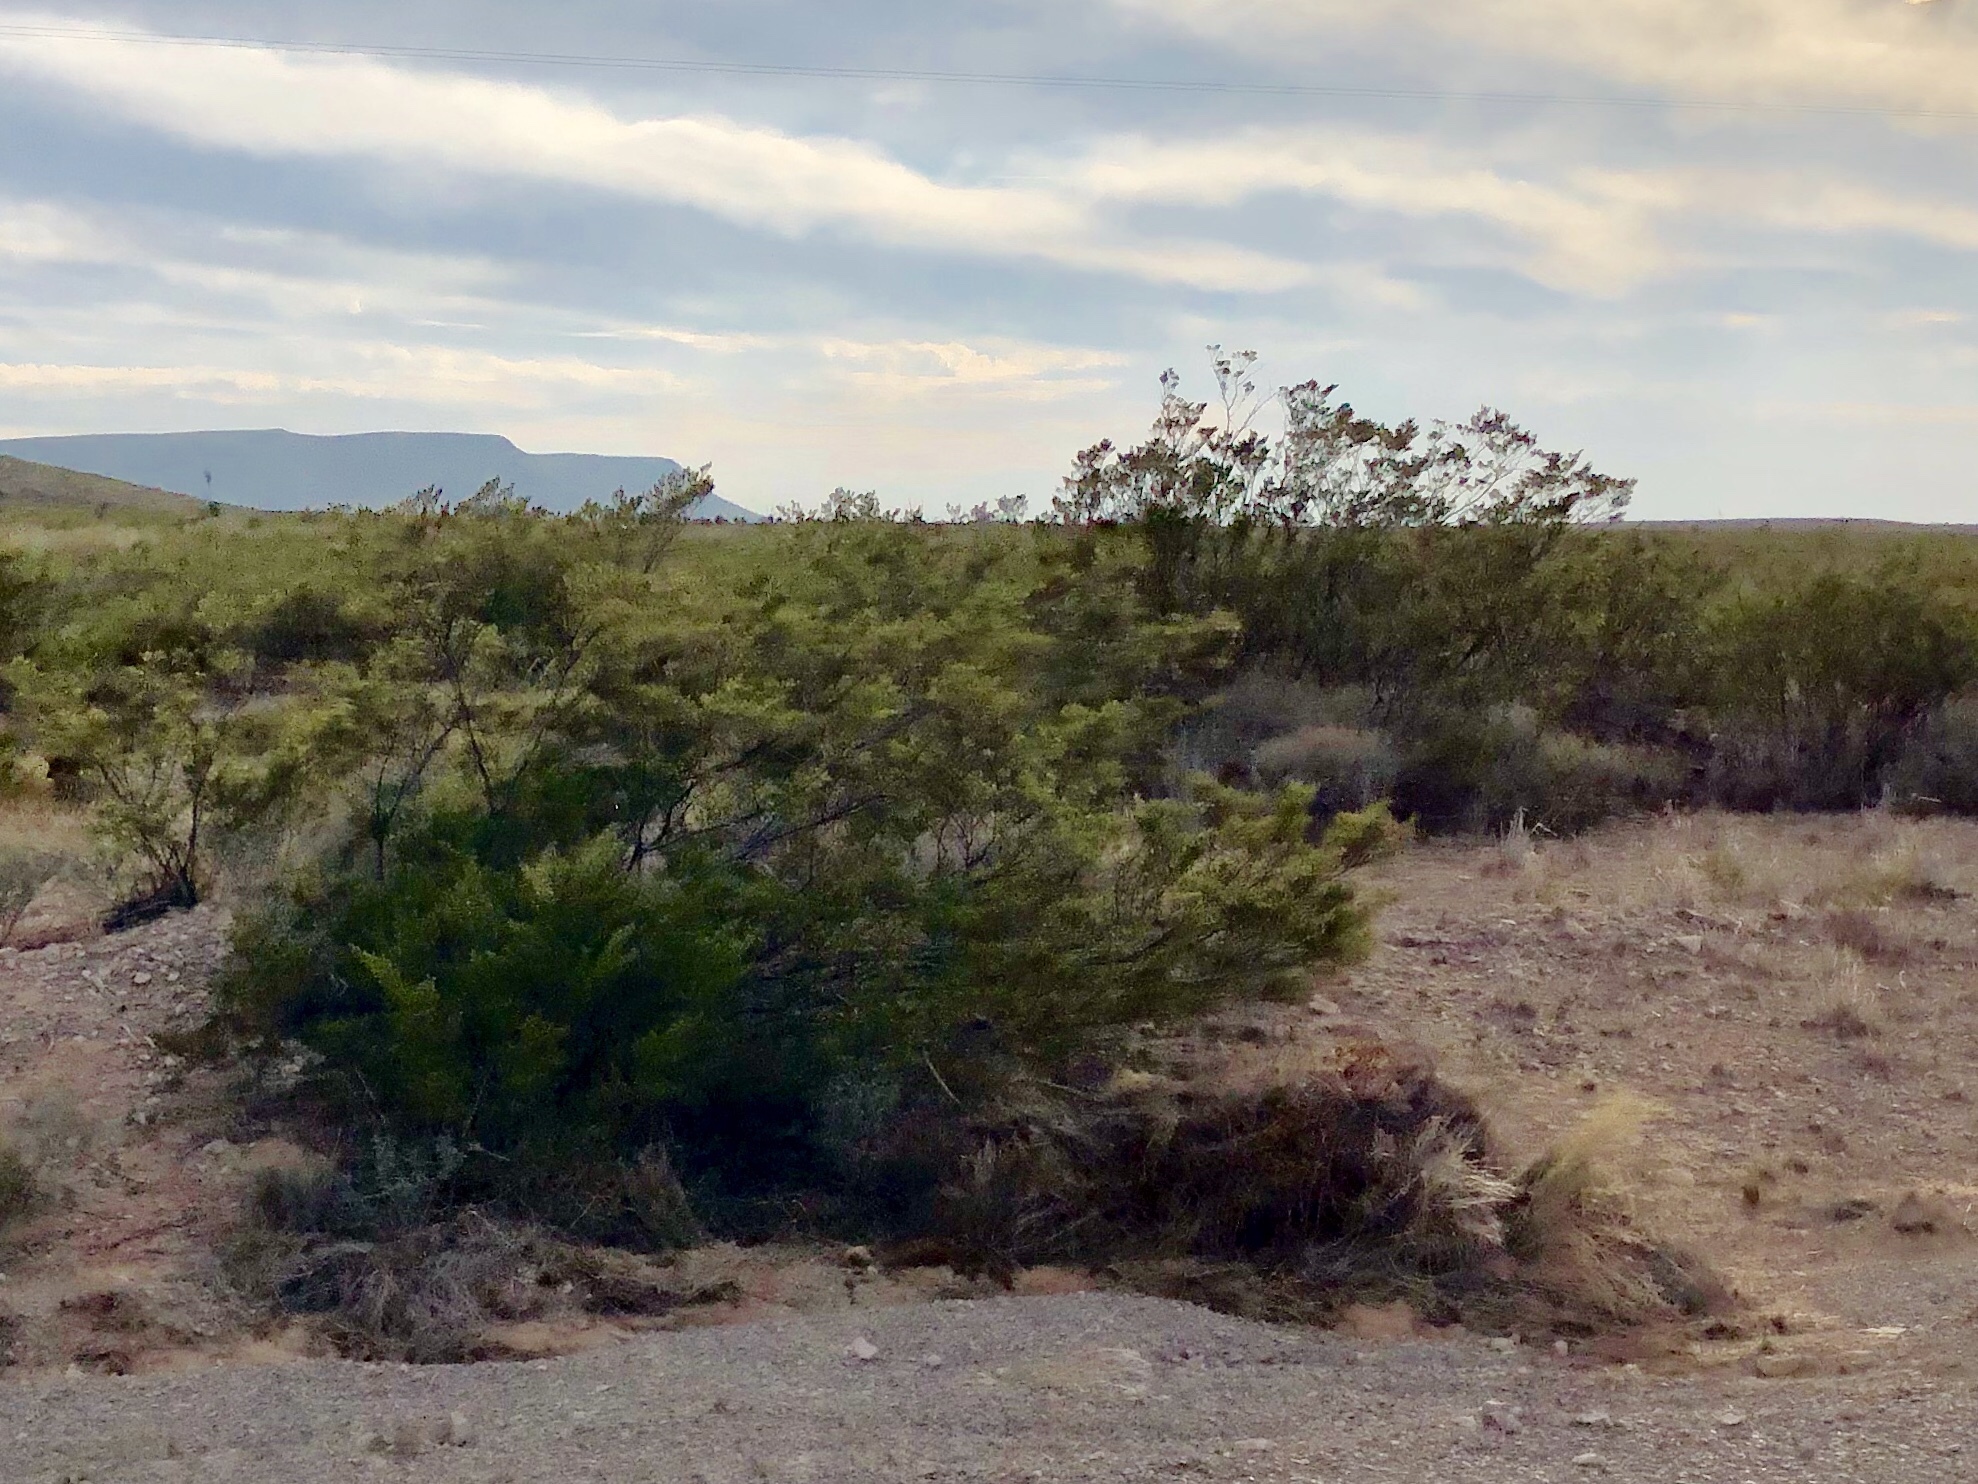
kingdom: Plantae
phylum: Tracheophyta
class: Magnoliopsida
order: Zygophyllales
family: Zygophyllaceae
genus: Larrea
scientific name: Larrea tridentata
